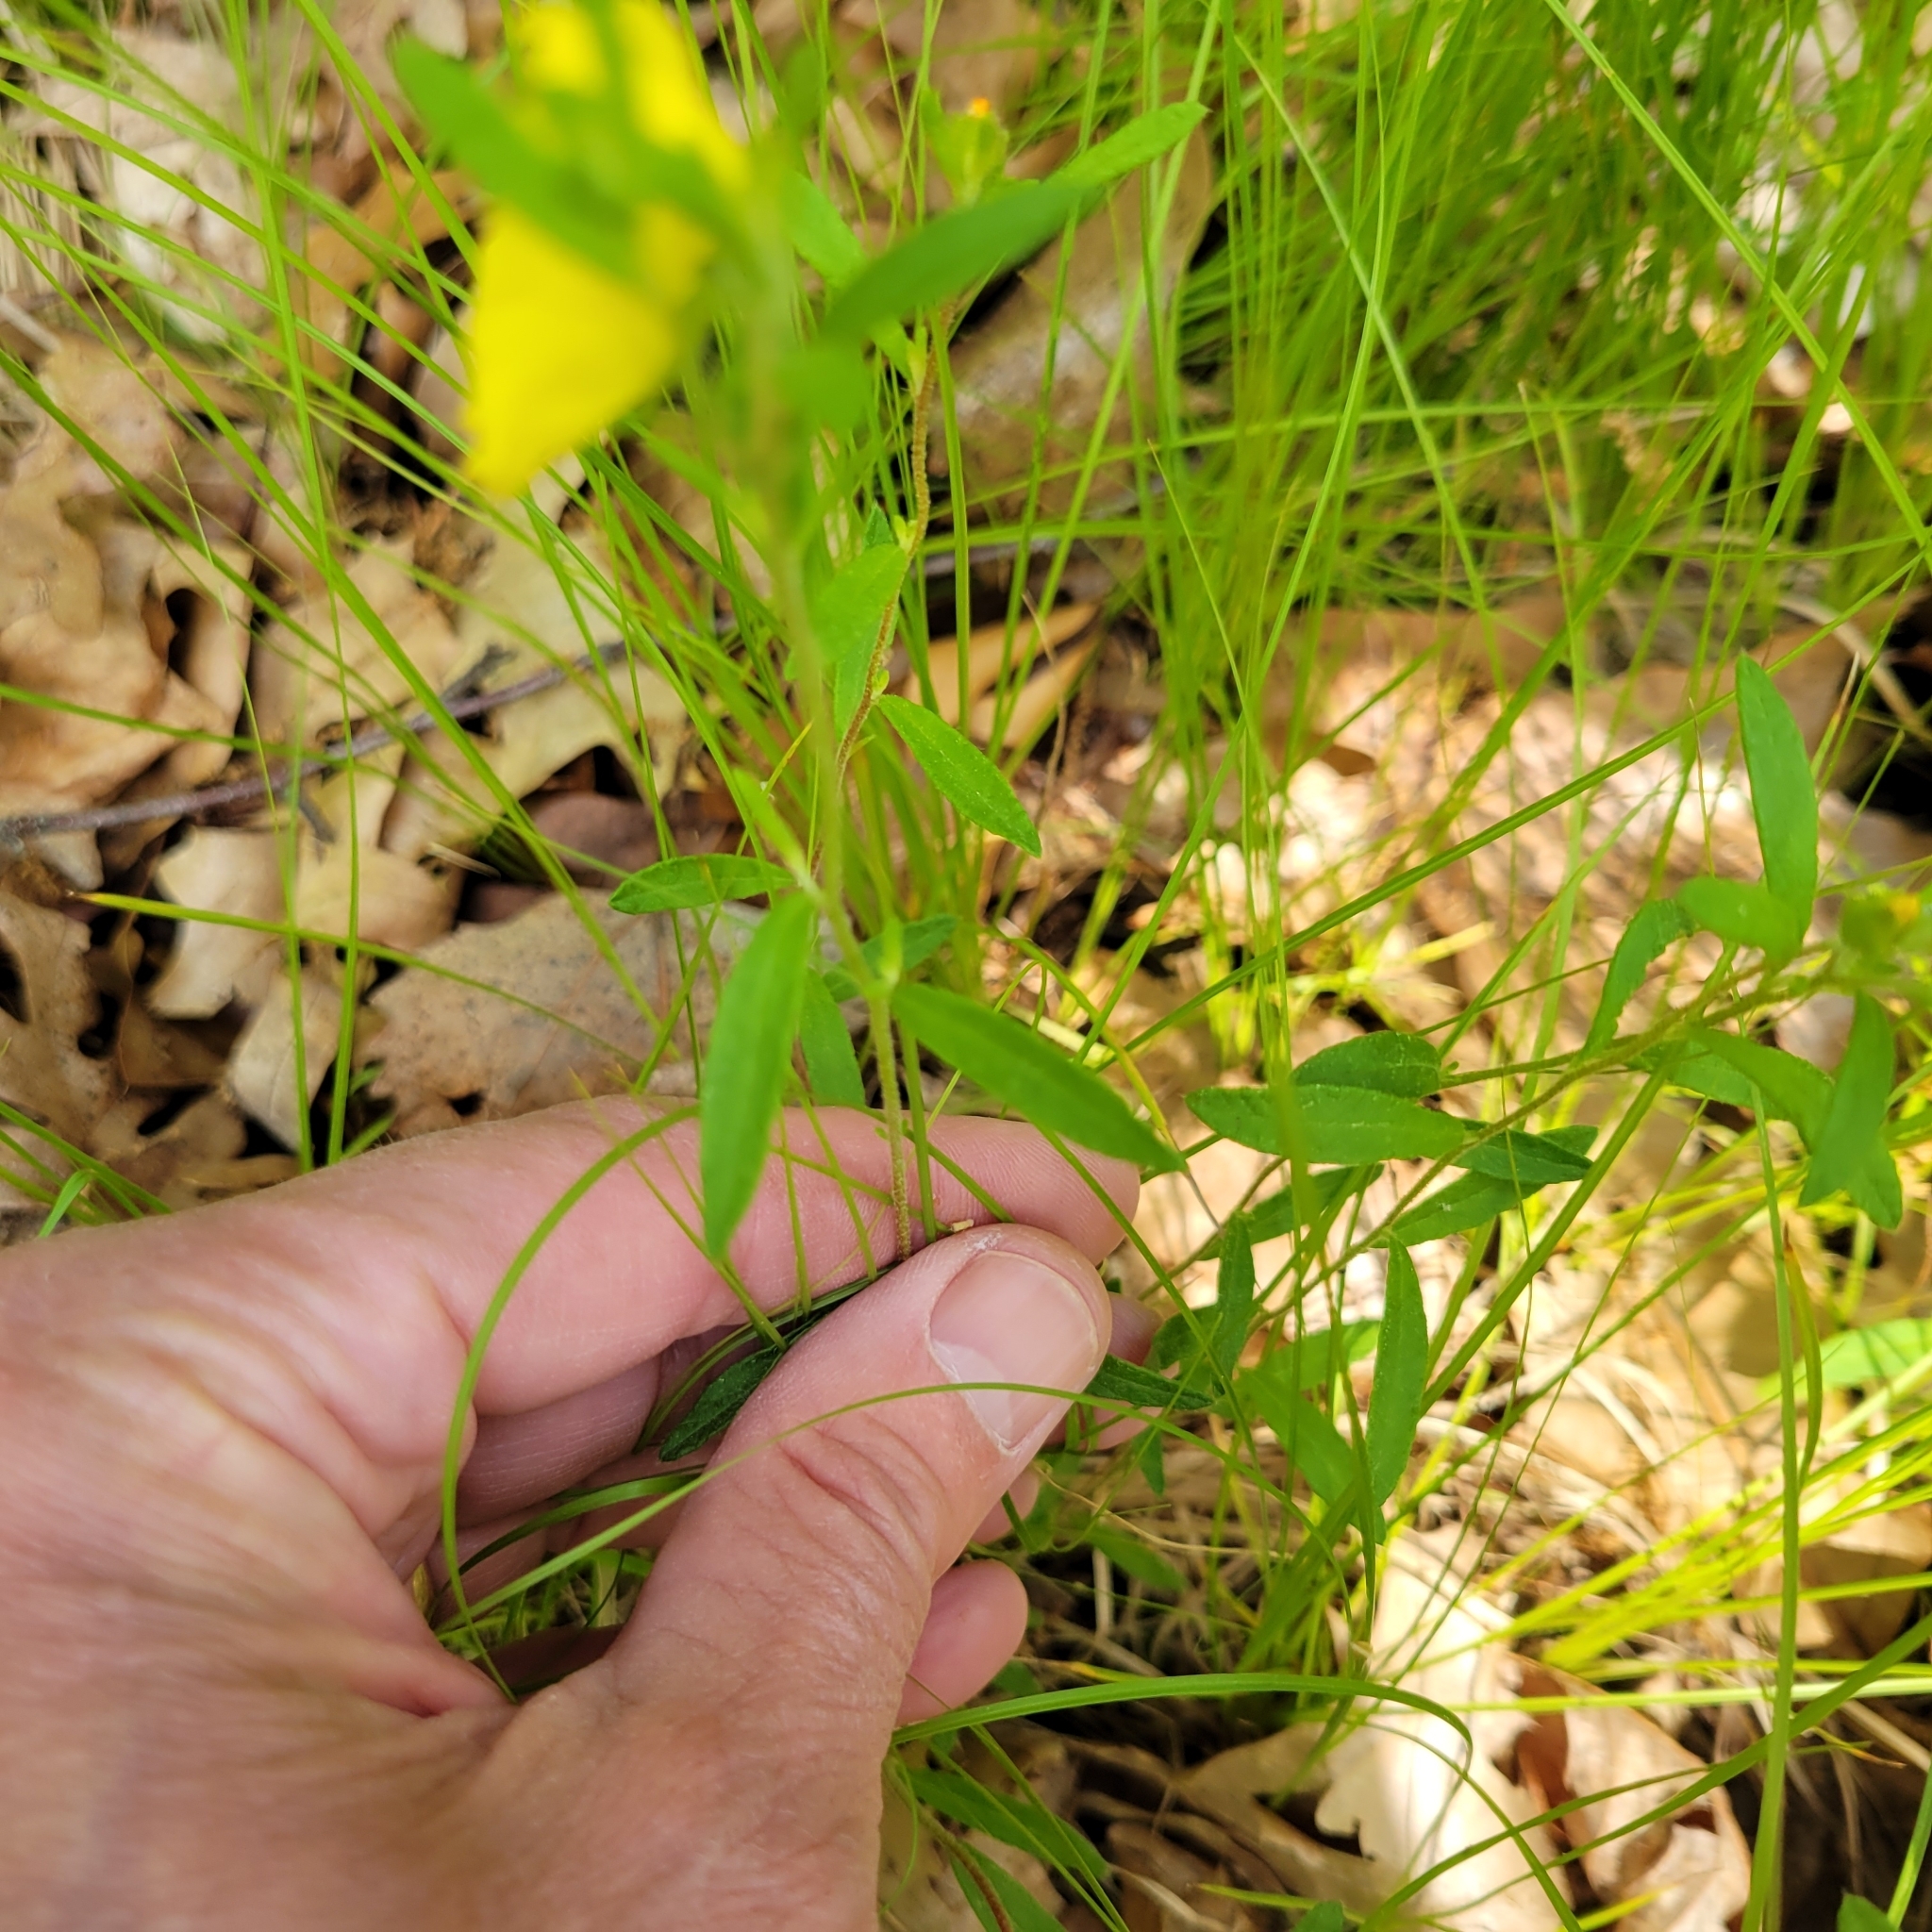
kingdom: Plantae
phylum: Tracheophyta
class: Magnoliopsida
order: Malvales
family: Cistaceae
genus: Crocanthemum
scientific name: Crocanthemum canadense
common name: Canada frostweed
